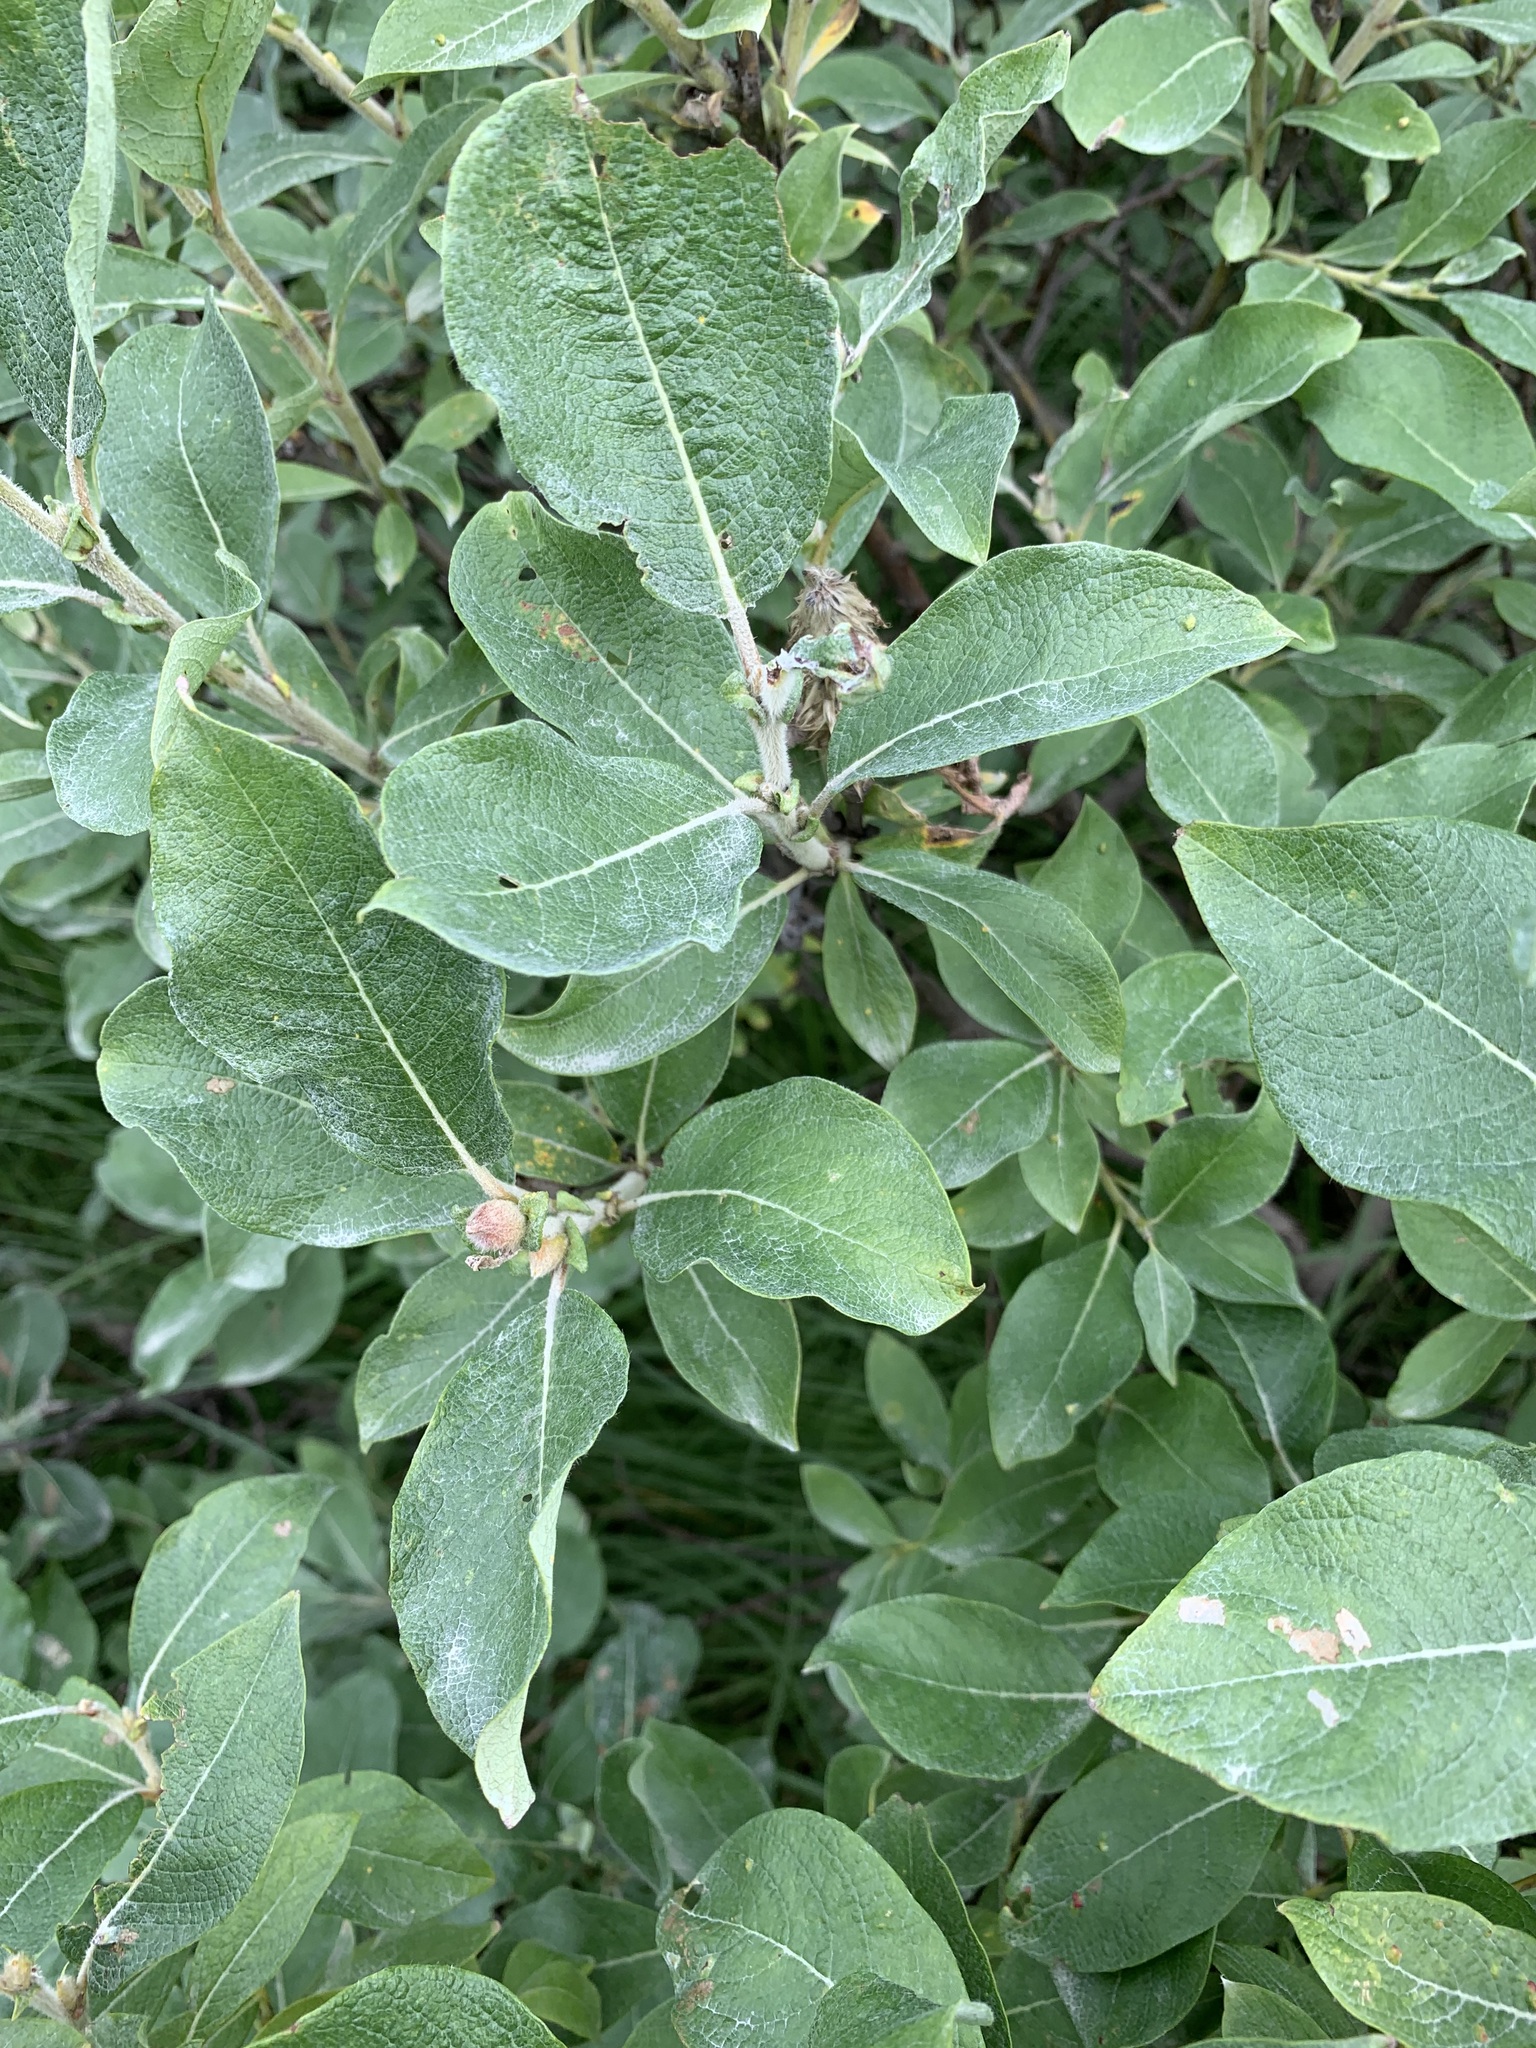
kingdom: Plantae
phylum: Tracheophyta
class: Magnoliopsida
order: Malpighiales
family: Salicaceae
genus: Salix
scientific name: Salix lanata
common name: Woolly willow
